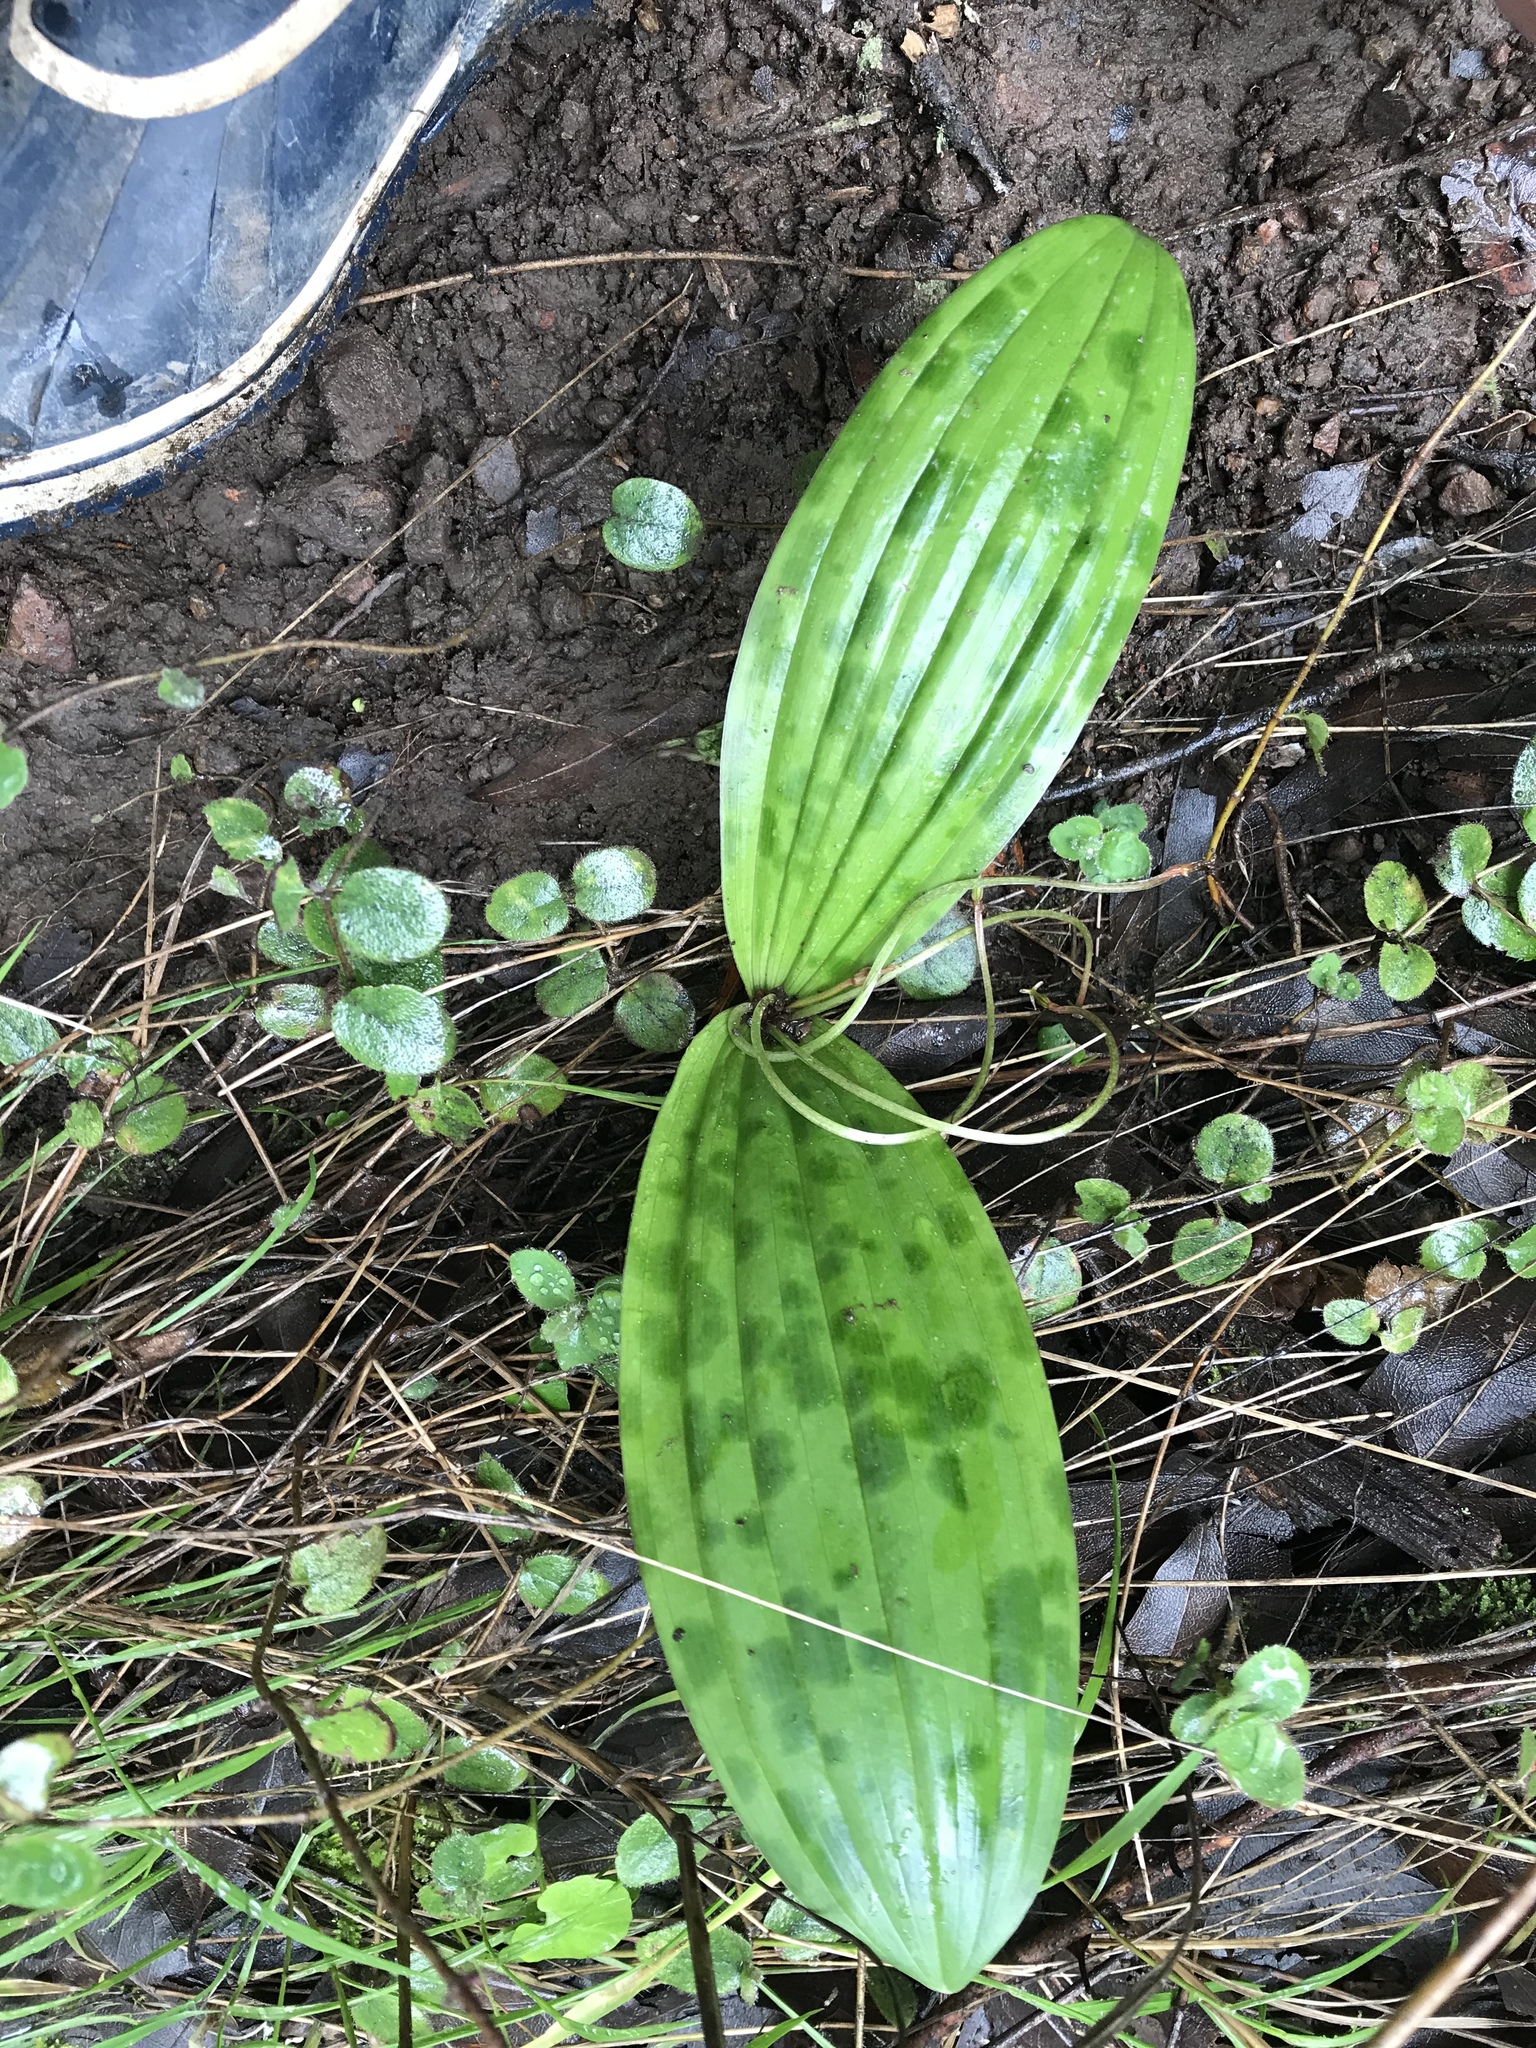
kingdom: Plantae
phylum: Tracheophyta
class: Liliopsida
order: Liliales
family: Liliaceae
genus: Scoliopus
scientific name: Scoliopus bigelovii
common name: Foetid adder's-tongue
